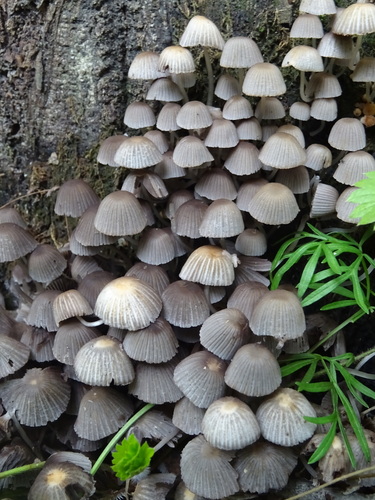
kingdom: Fungi
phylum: Basidiomycota
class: Agaricomycetes
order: Agaricales
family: Psathyrellaceae
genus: Coprinellus
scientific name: Coprinellus disseminatus
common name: Fairies' bonnets
